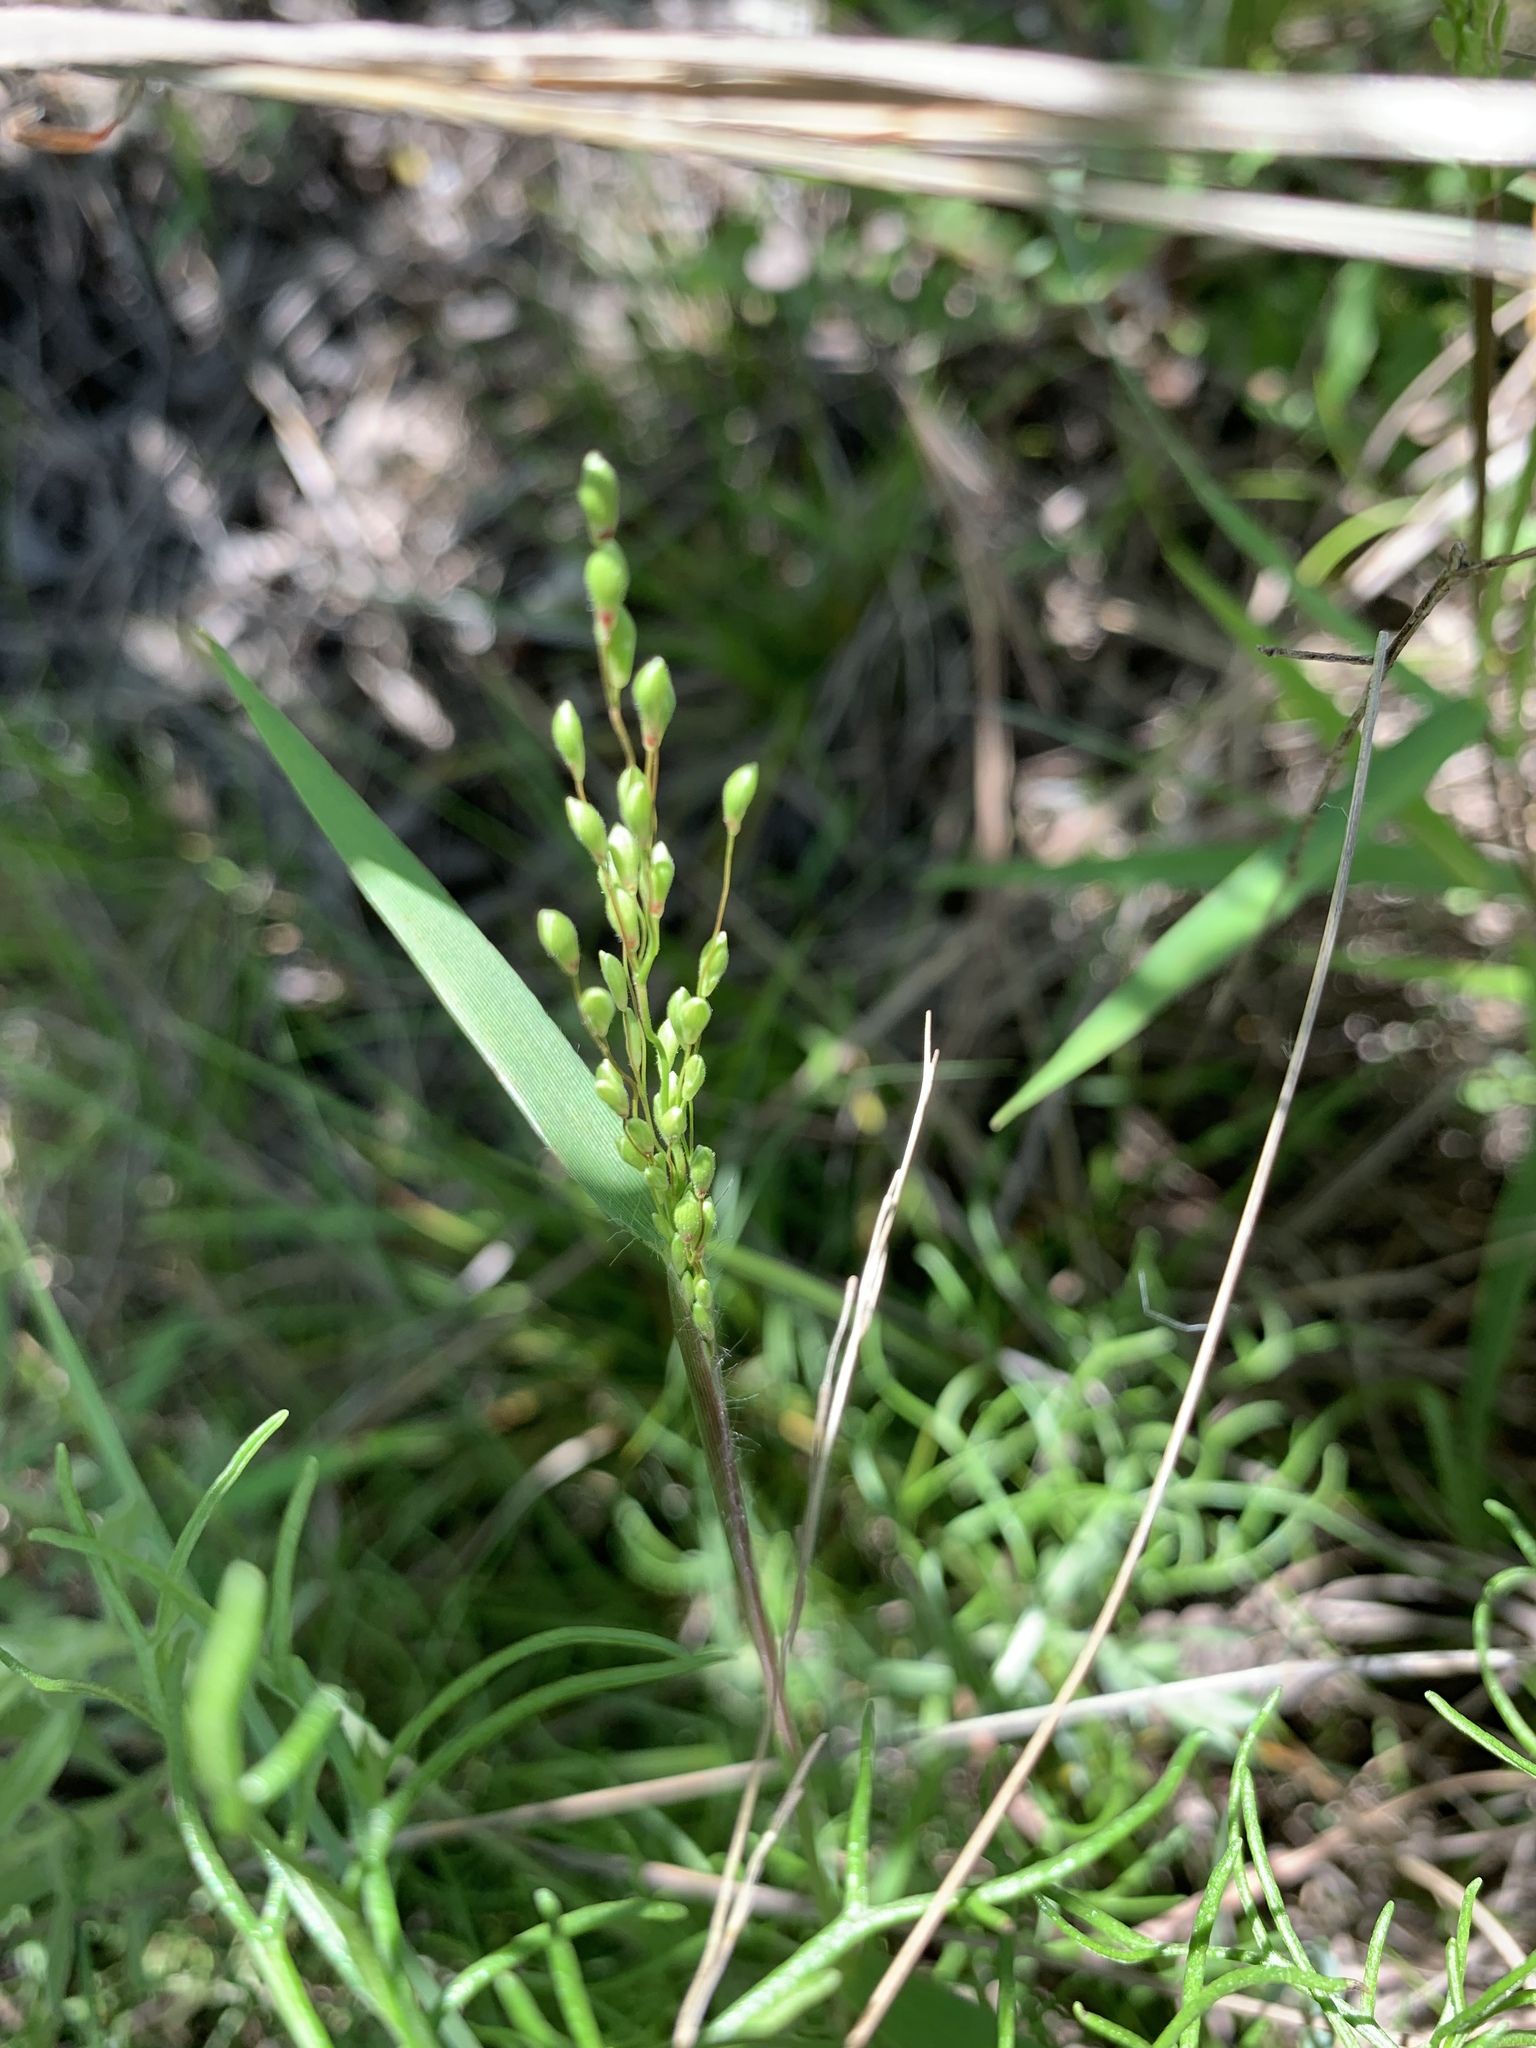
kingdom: Plantae
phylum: Tracheophyta
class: Liliopsida
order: Poales
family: Poaceae
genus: Dichanthelium
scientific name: Dichanthelium oligosanthes
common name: Few-anther obscuregrass
